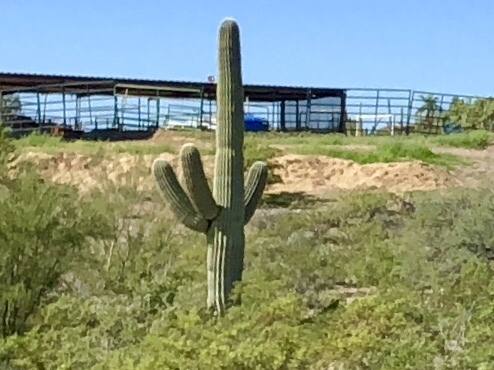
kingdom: Plantae
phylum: Tracheophyta
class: Magnoliopsida
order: Caryophyllales
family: Cactaceae
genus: Carnegiea
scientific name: Carnegiea gigantea
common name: Saguaro
